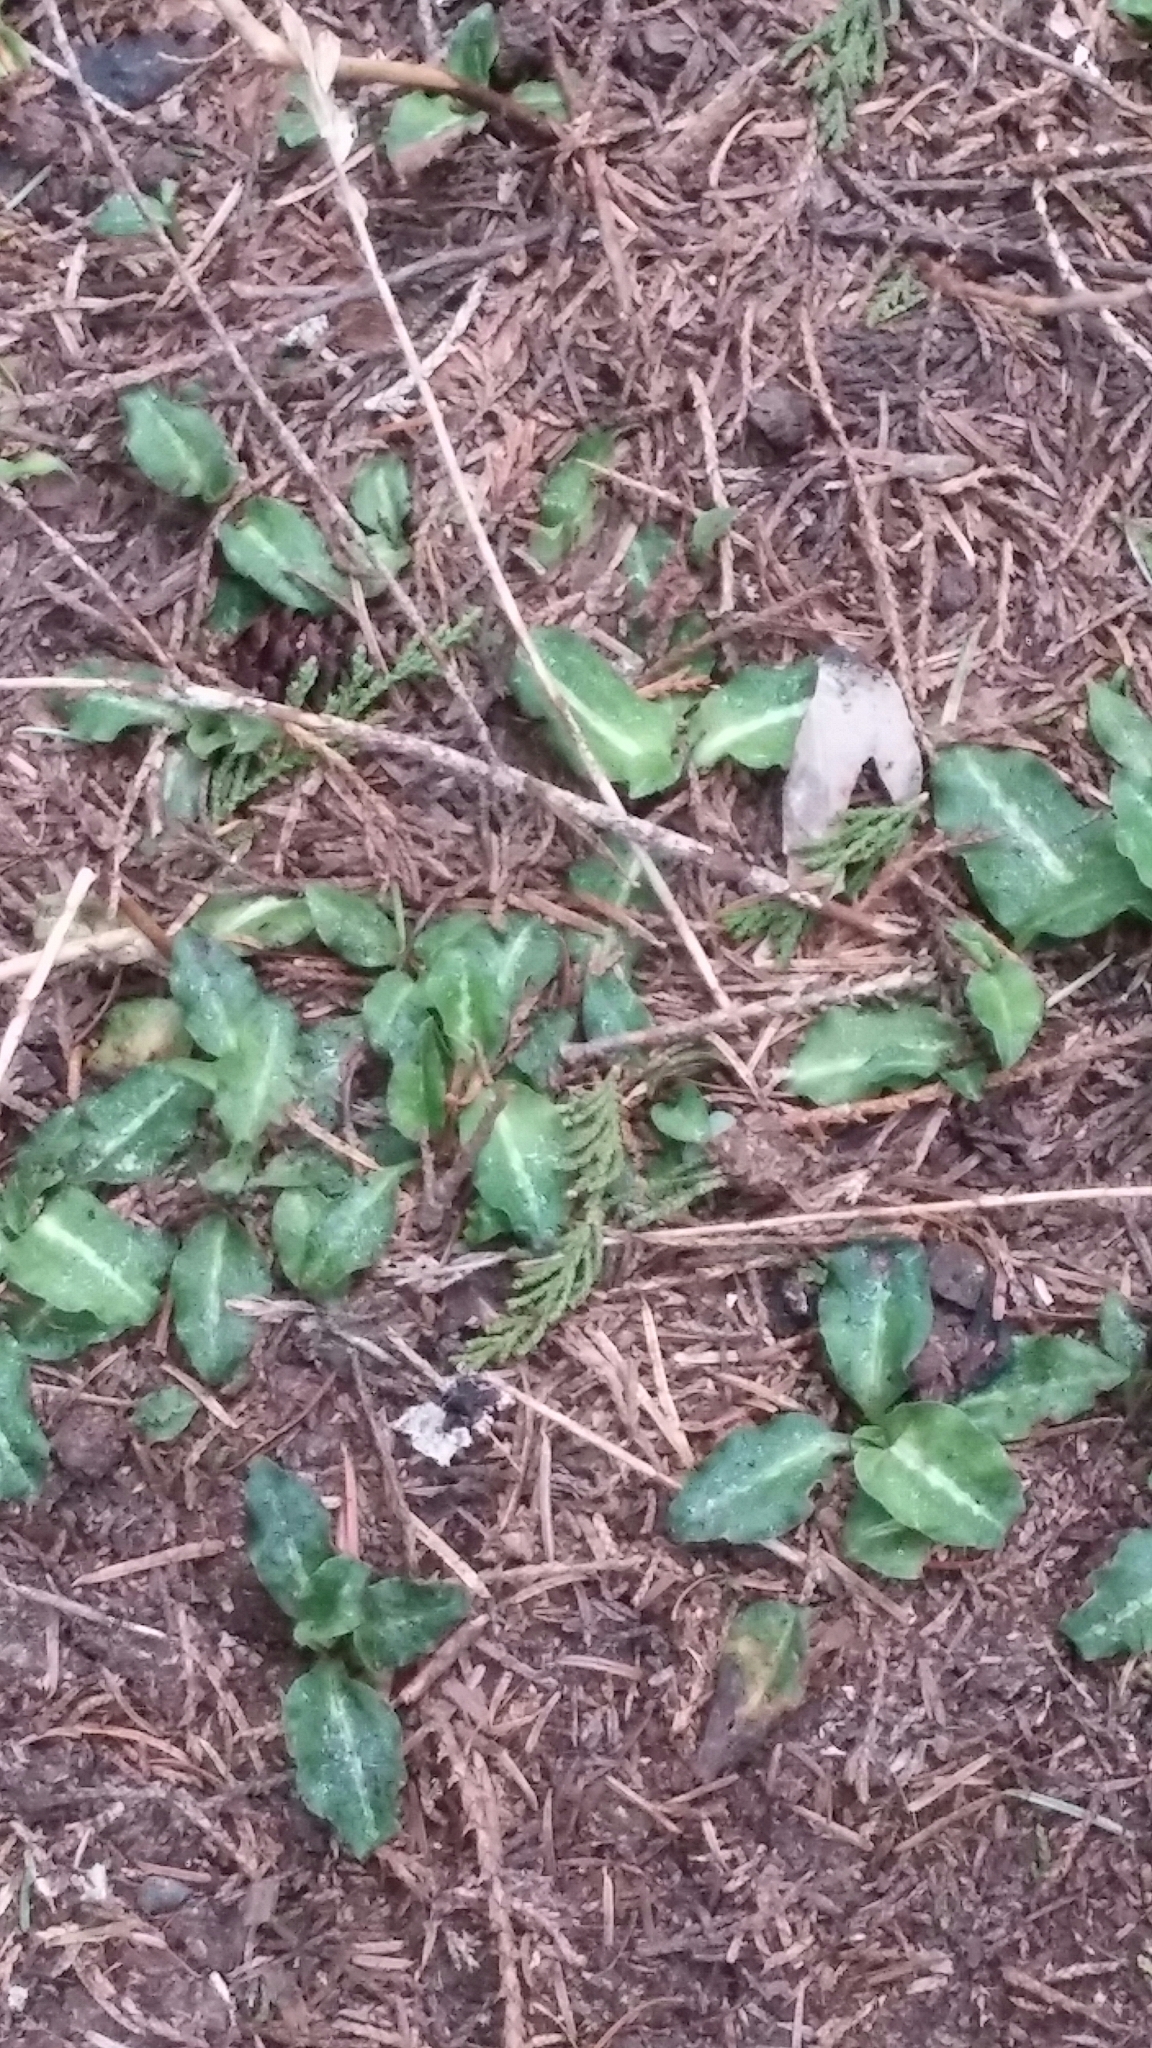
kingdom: Plantae
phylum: Tracheophyta
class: Liliopsida
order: Asparagales
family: Orchidaceae
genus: Goodyera
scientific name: Goodyera oblongifolia
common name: Giant rattlesnake-plantain
